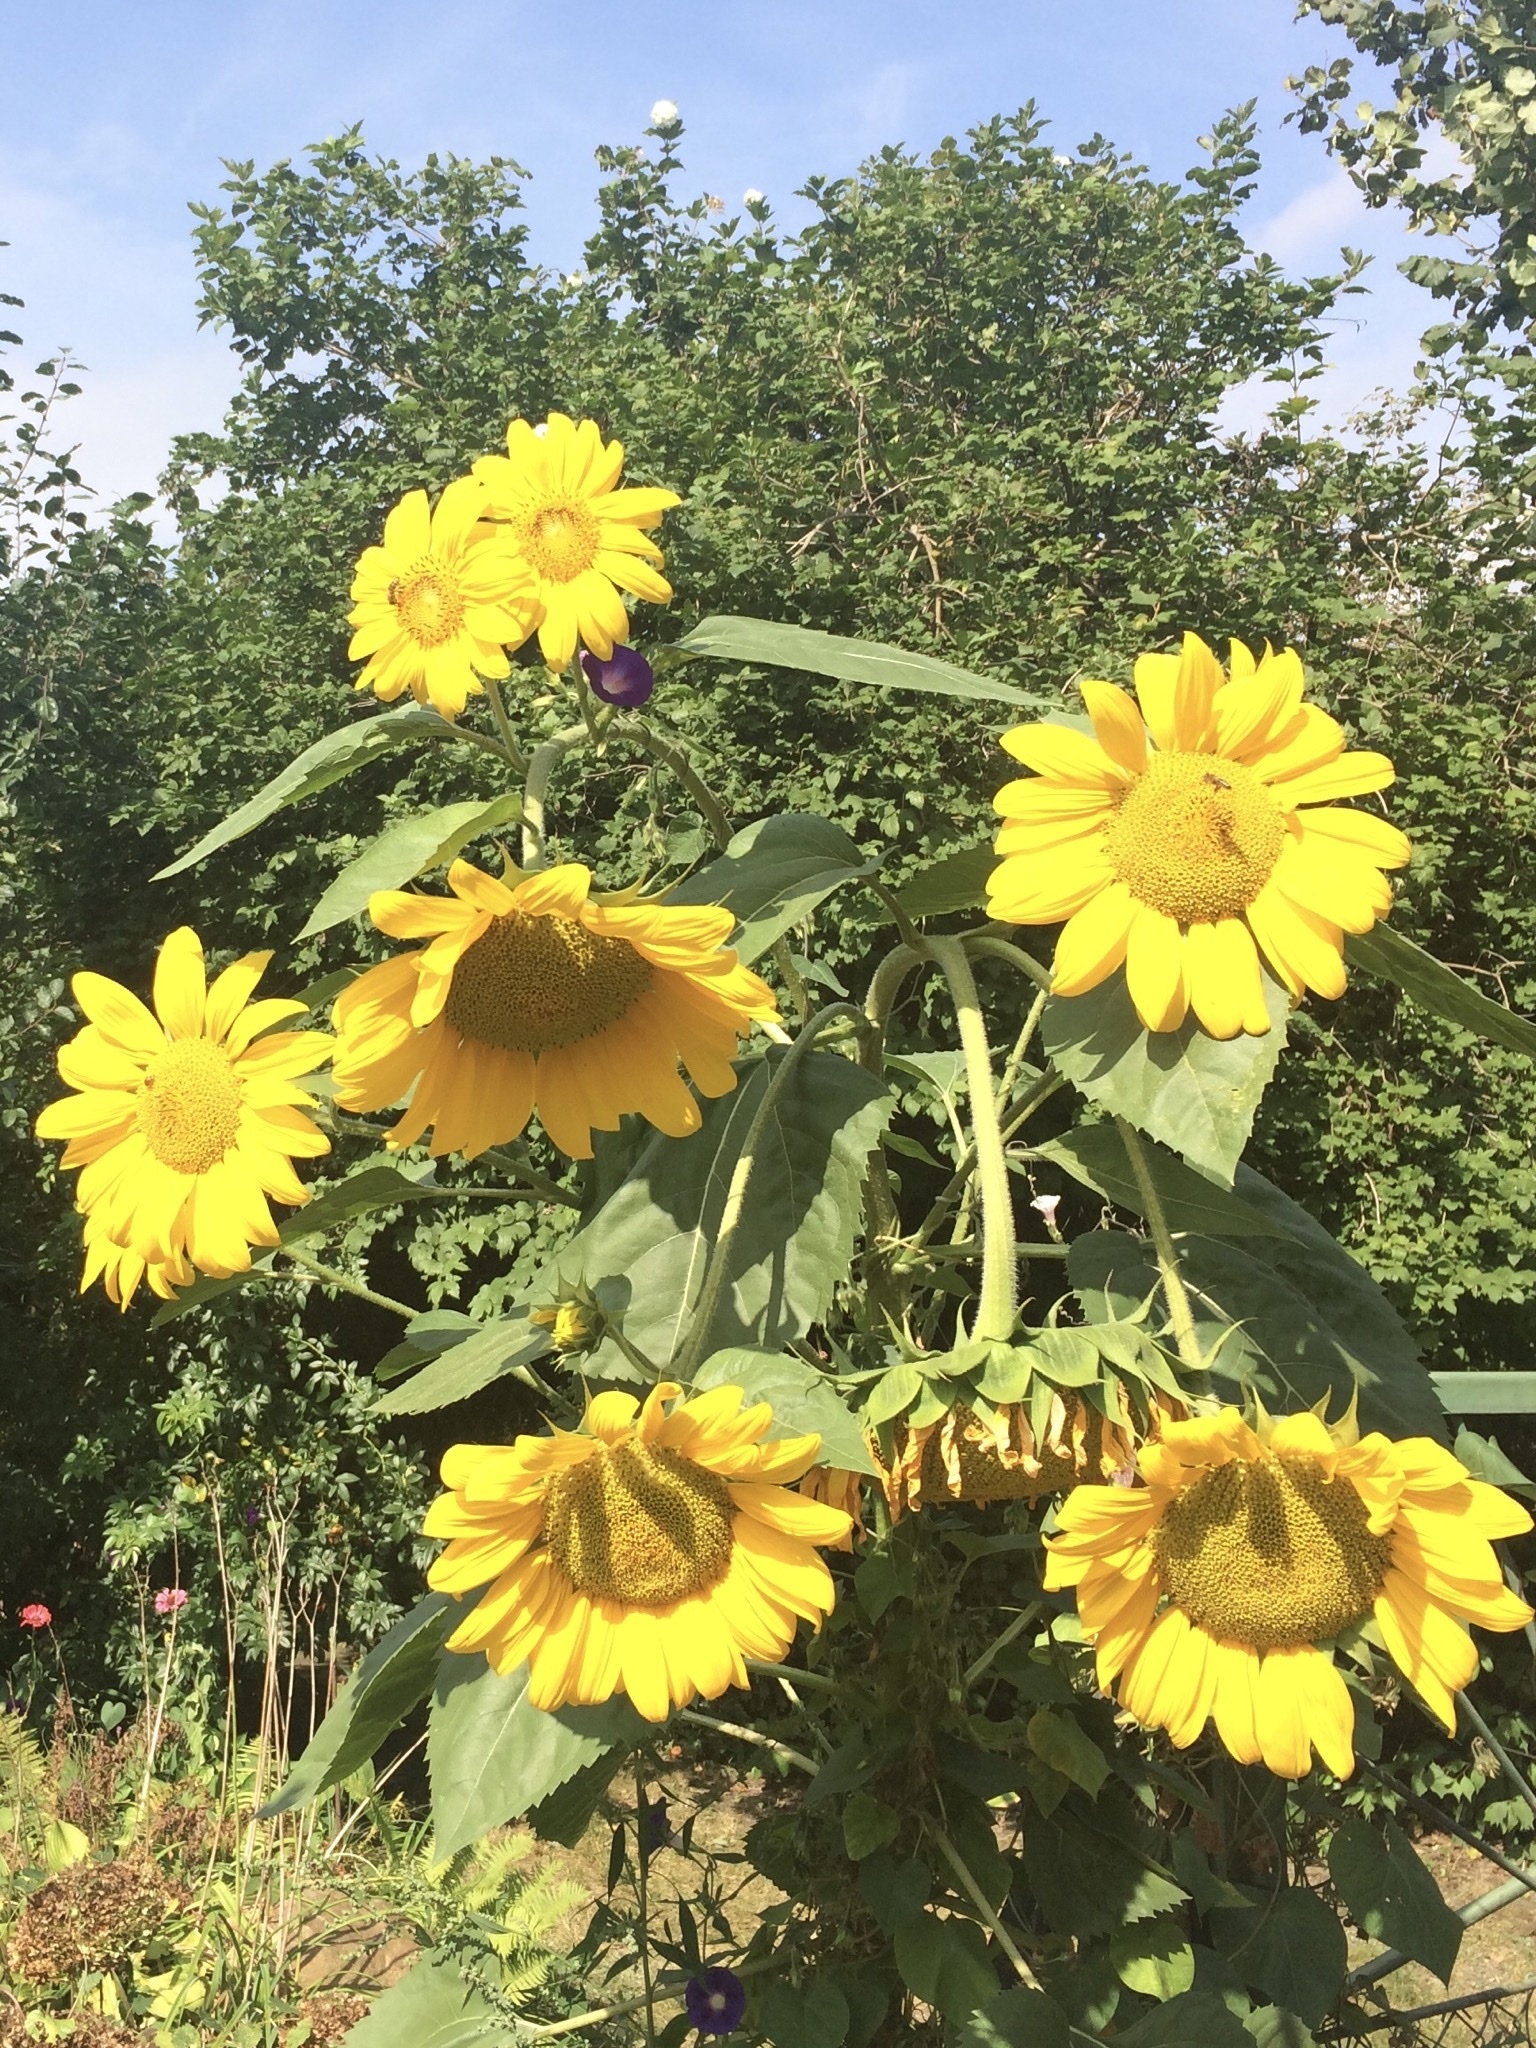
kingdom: Plantae
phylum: Tracheophyta
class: Magnoliopsida
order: Asterales
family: Asteraceae
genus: Helianthus
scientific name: Helianthus annuus
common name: Sunflower
